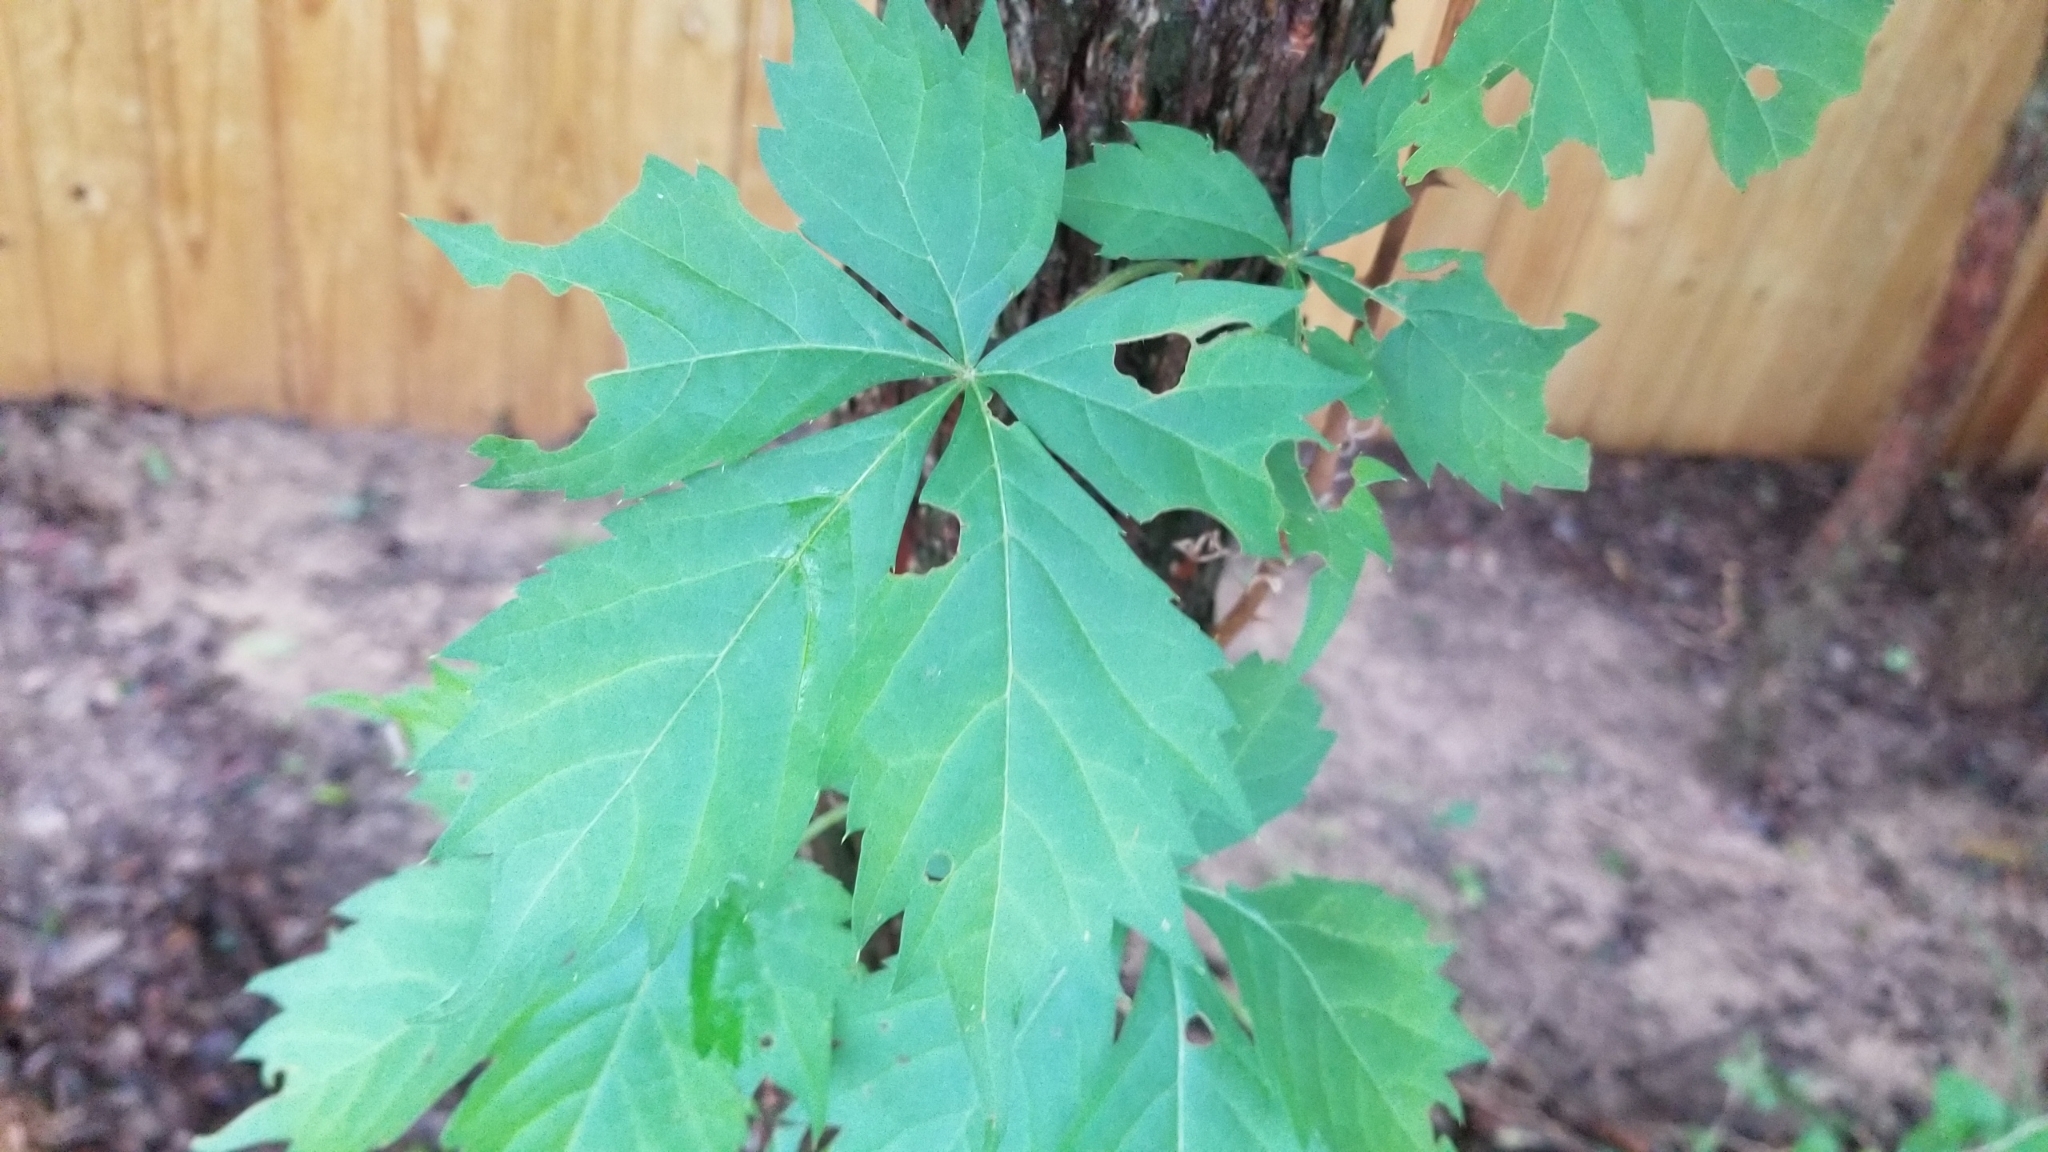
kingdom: Plantae
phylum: Tracheophyta
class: Magnoliopsida
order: Vitales
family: Vitaceae
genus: Parthenocissus
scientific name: Parthenocissus quinquefolia
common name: Virginia-creeper
